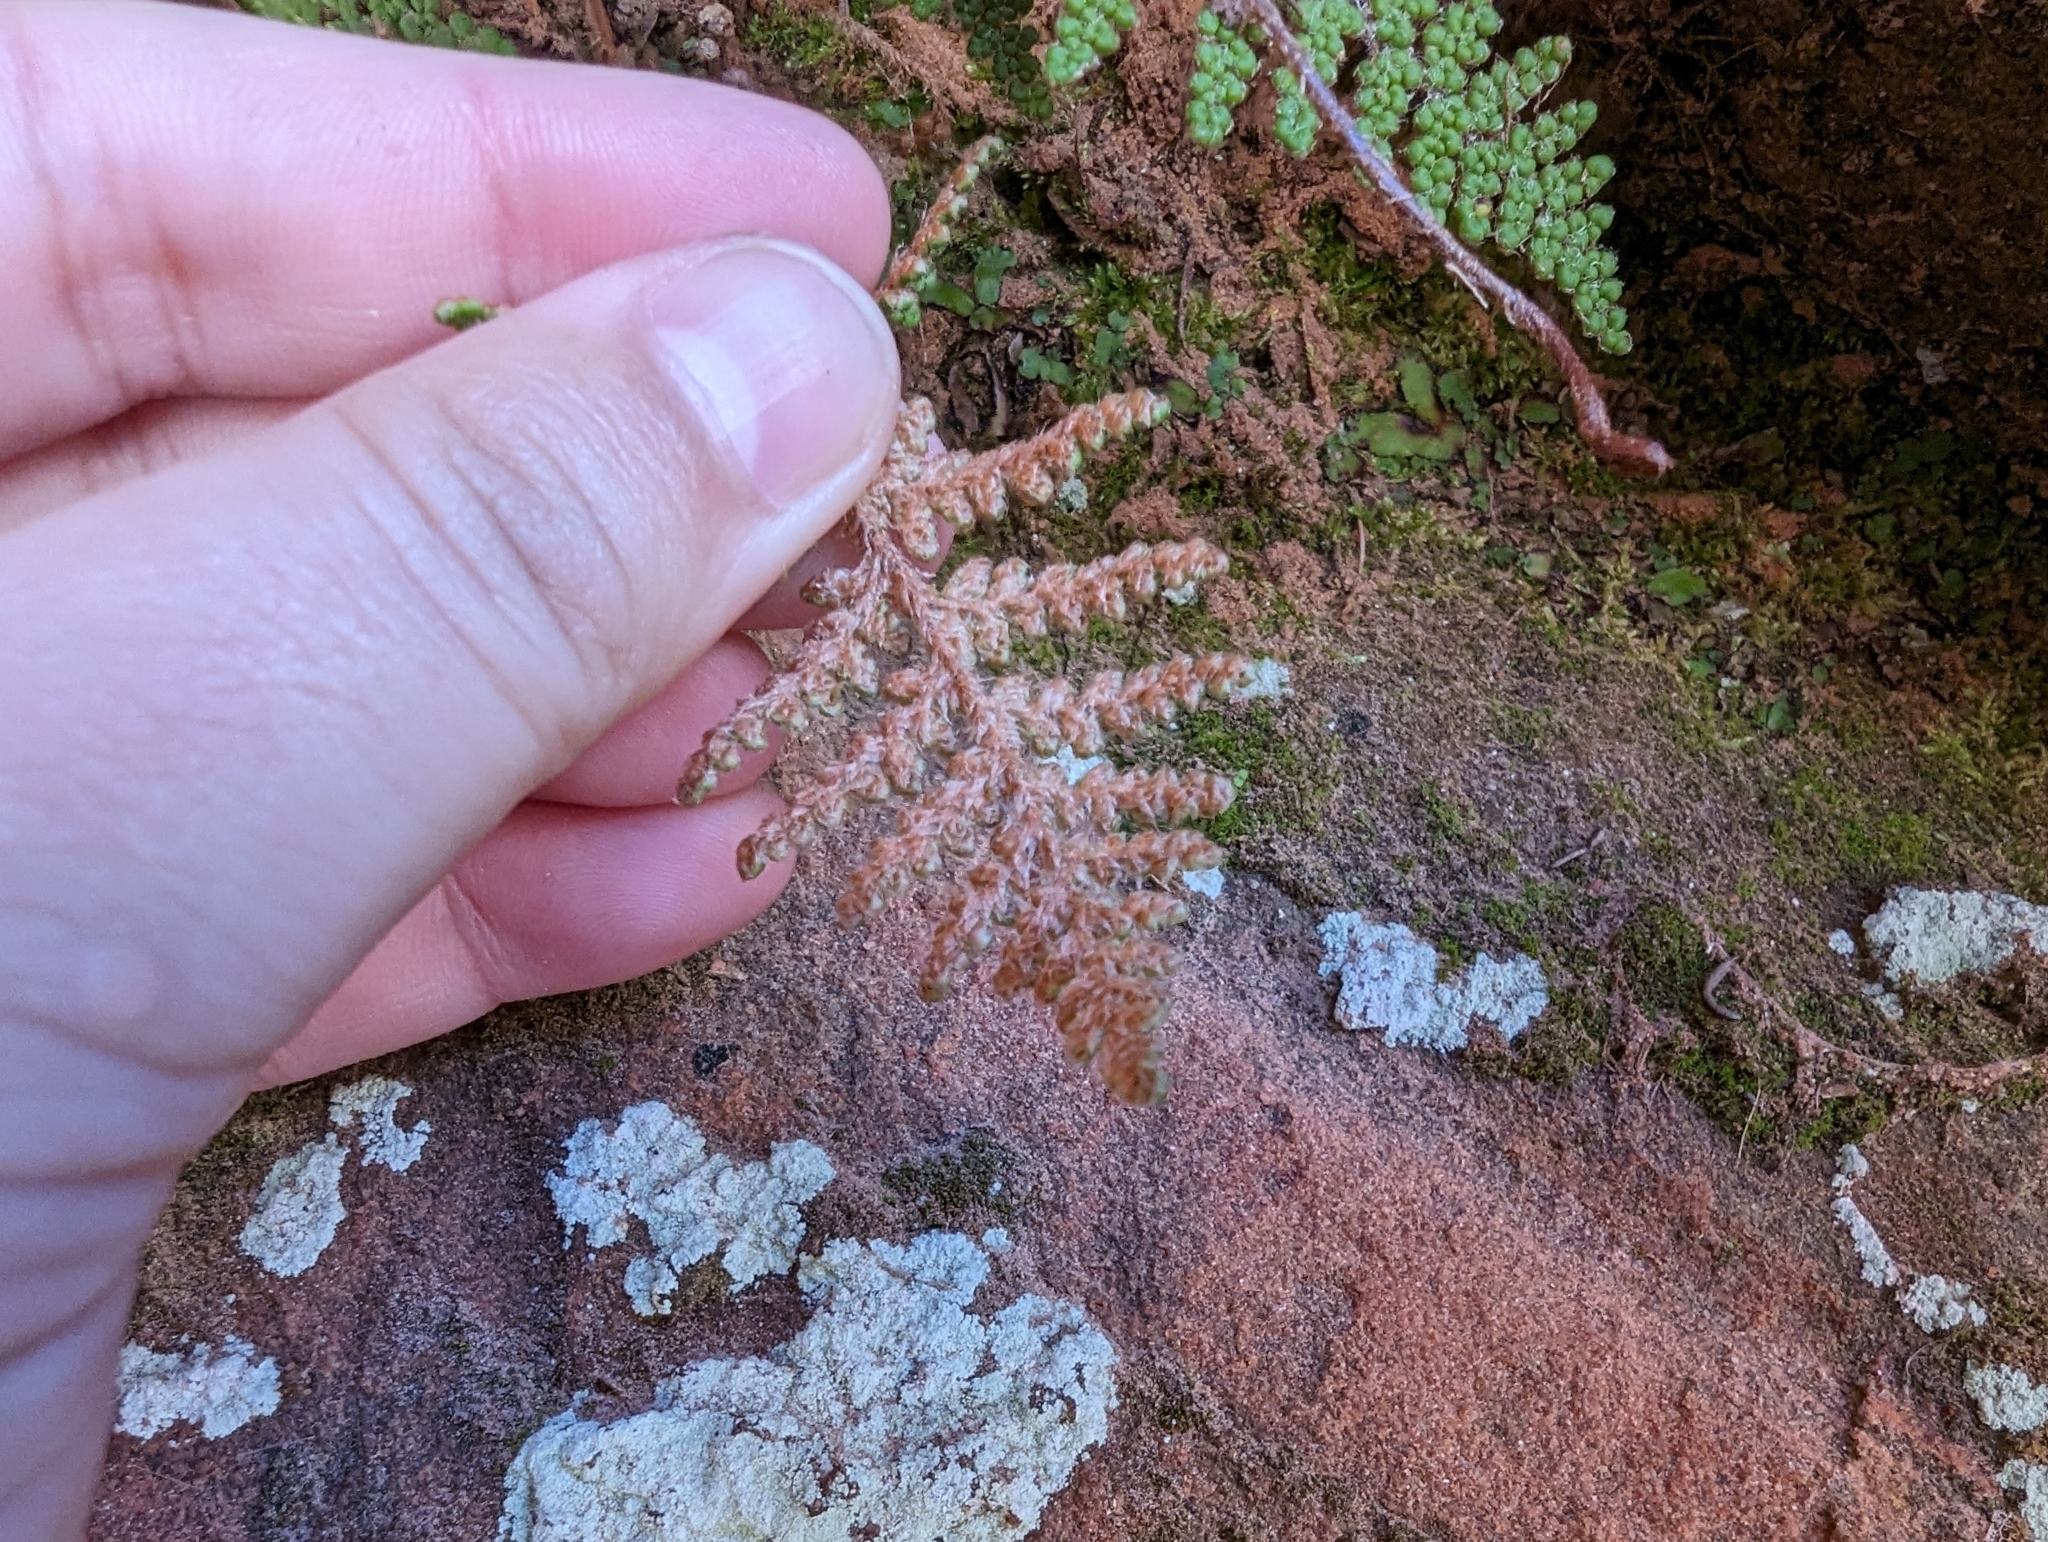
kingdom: Plantae
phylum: Tracheophyta
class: Polypodiopsida
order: Polypodiales
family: Pteridaceae
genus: Myriopteris
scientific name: Myriopteris covillei
